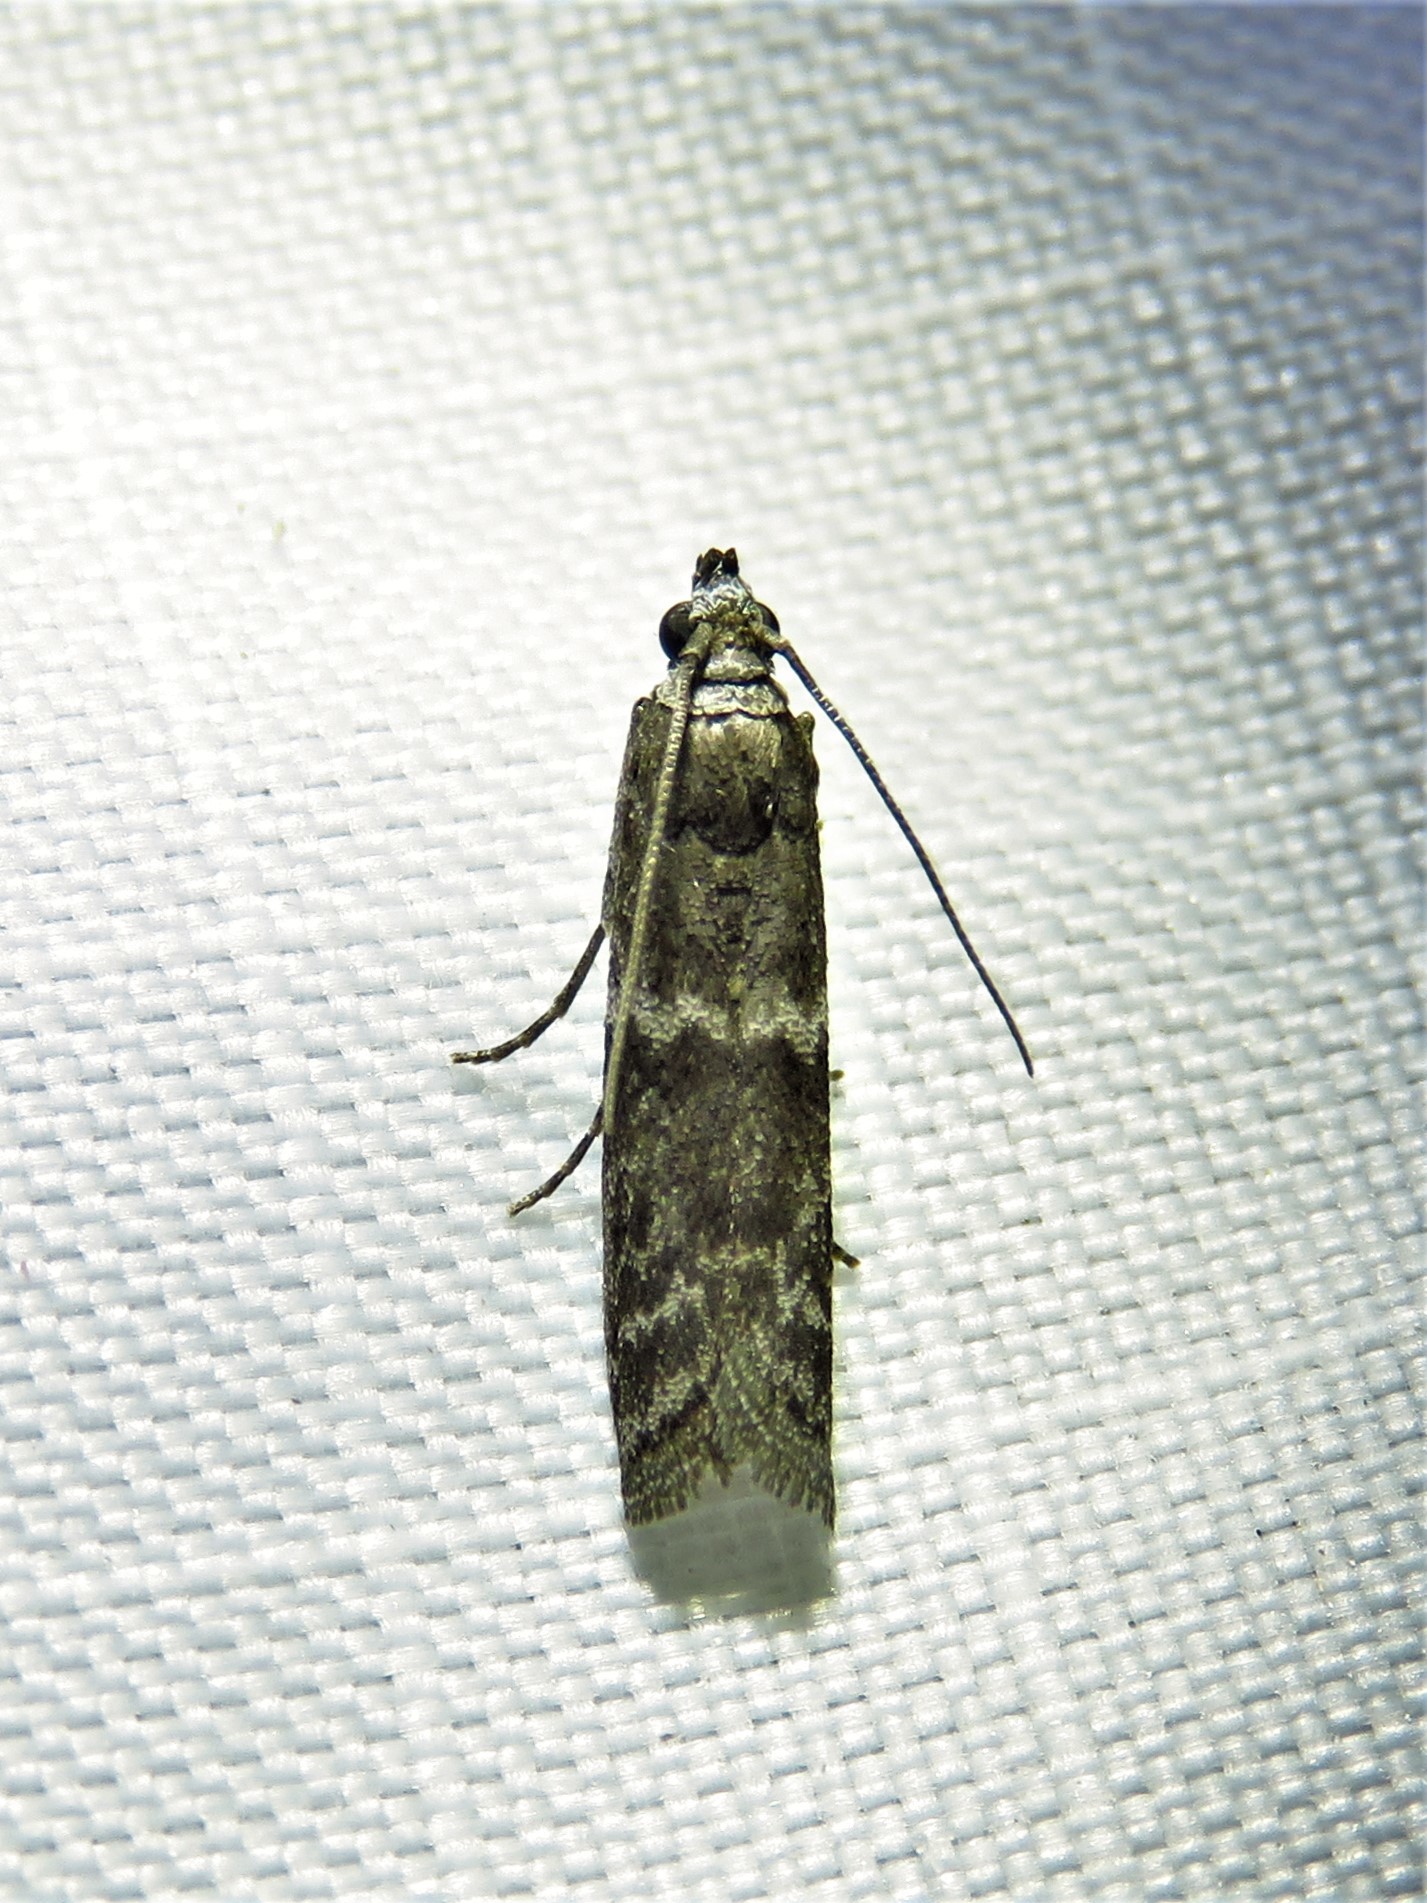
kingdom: Animalia
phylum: Arthropoda
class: Insecta
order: Lepidoptera
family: Pyralidae
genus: Eurythmia
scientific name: Eurythmia angulella
